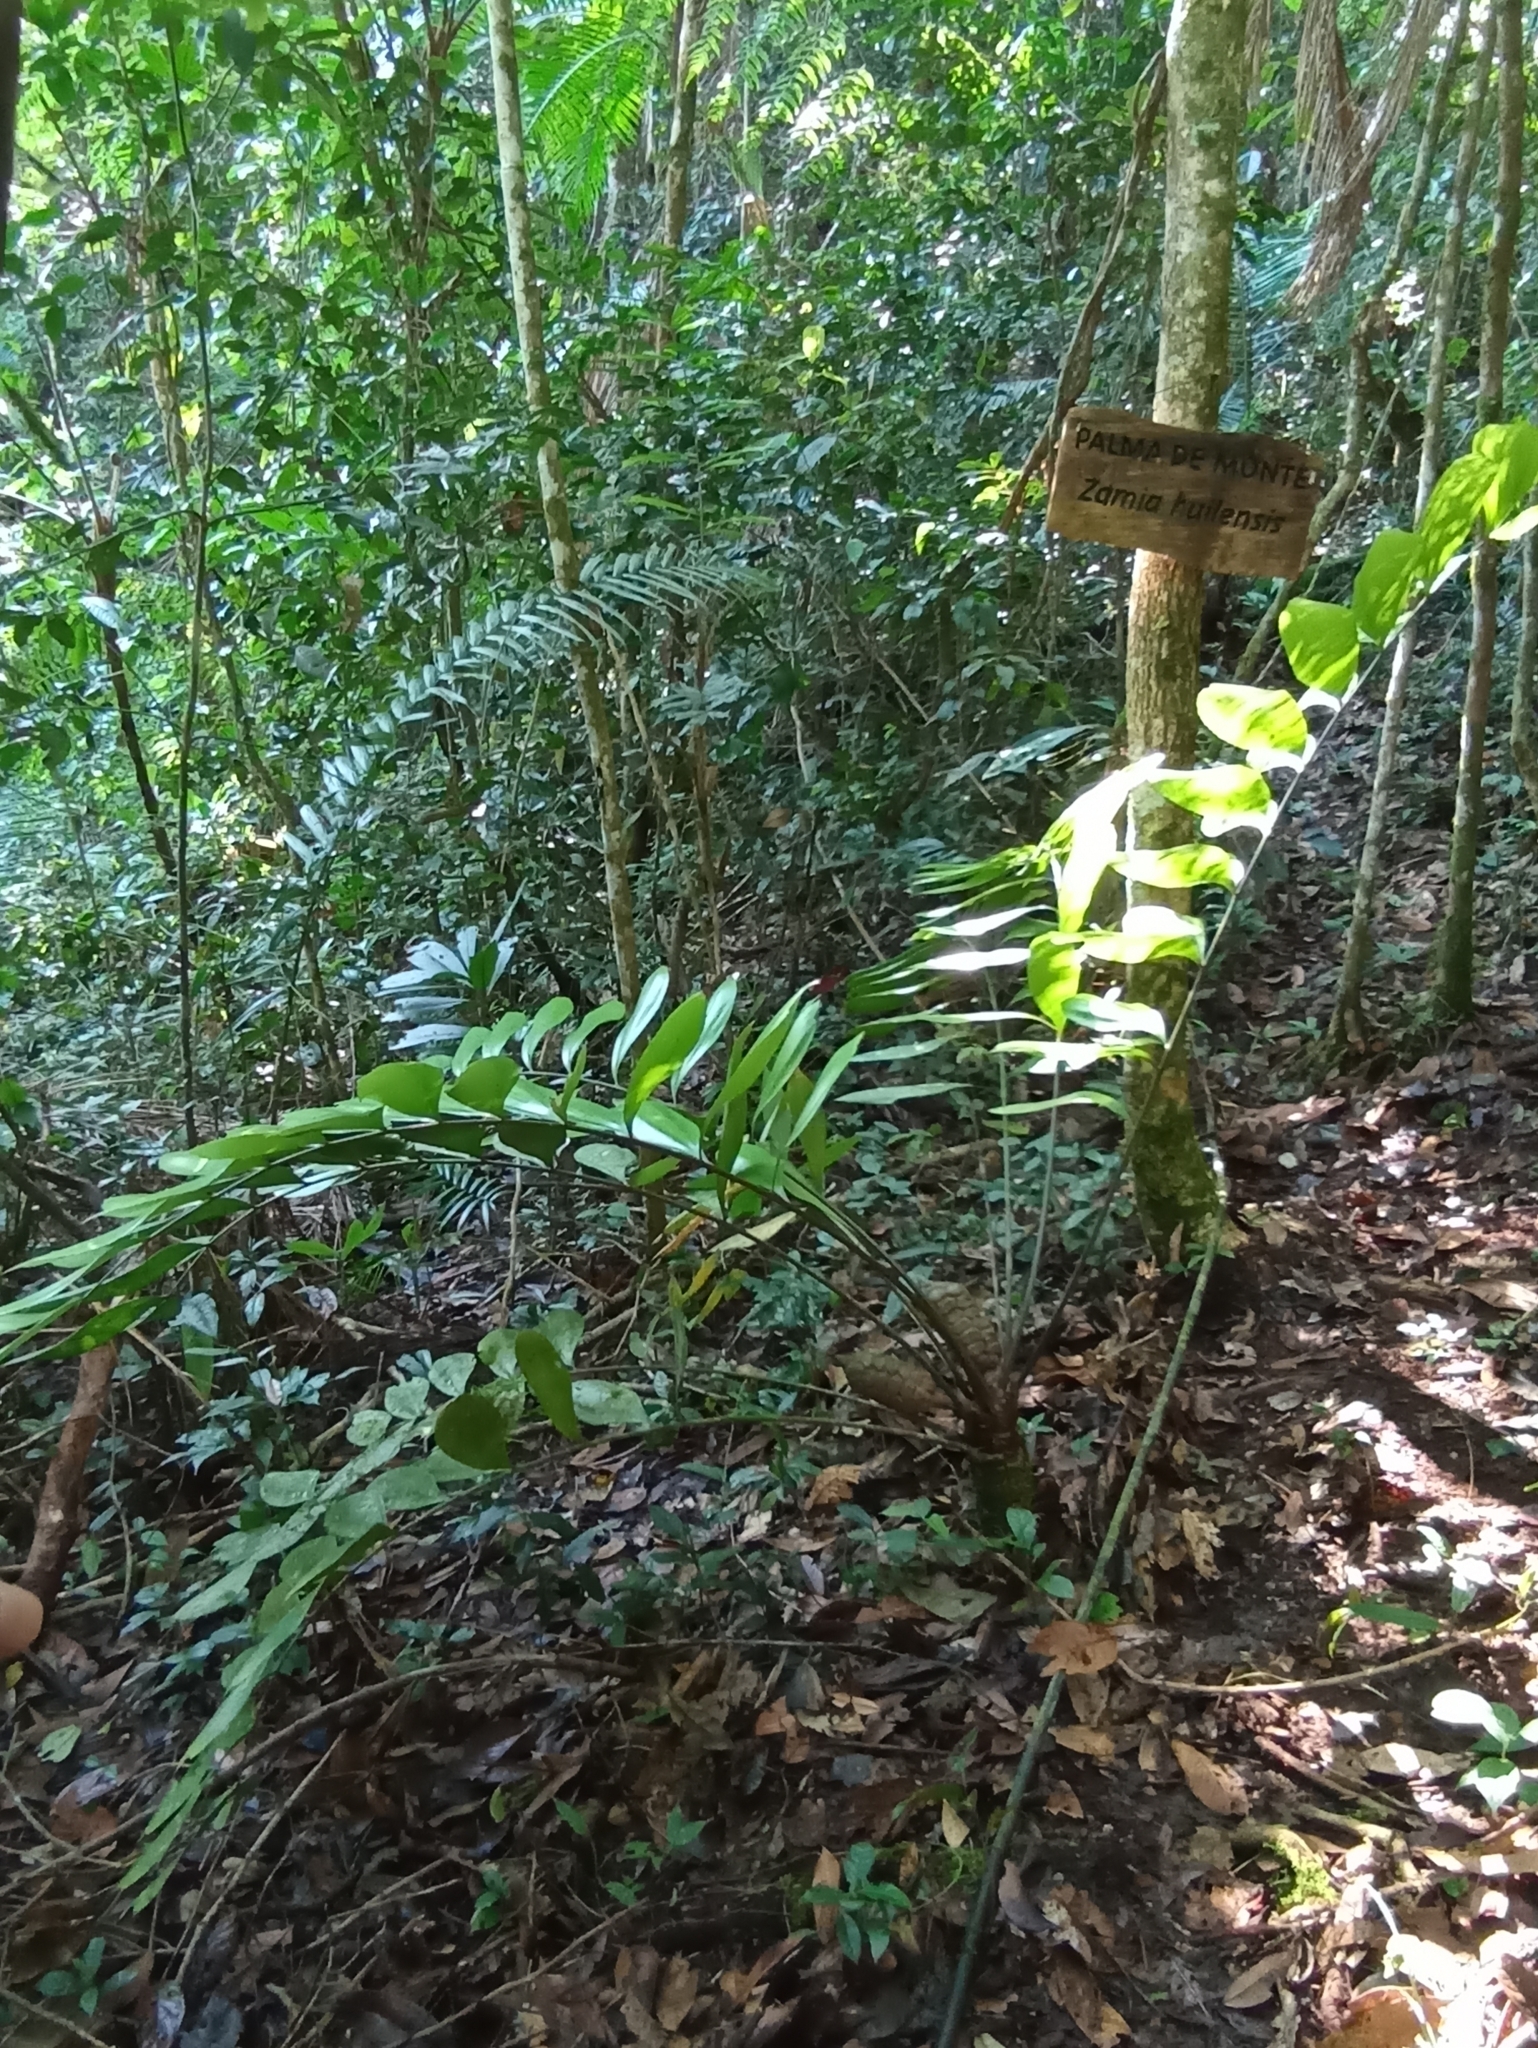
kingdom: Plantae
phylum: Tracheophyta
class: Cycadopsida
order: Cycadales
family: Zamiaceae
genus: Zamia
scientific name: Zamia huilensis
